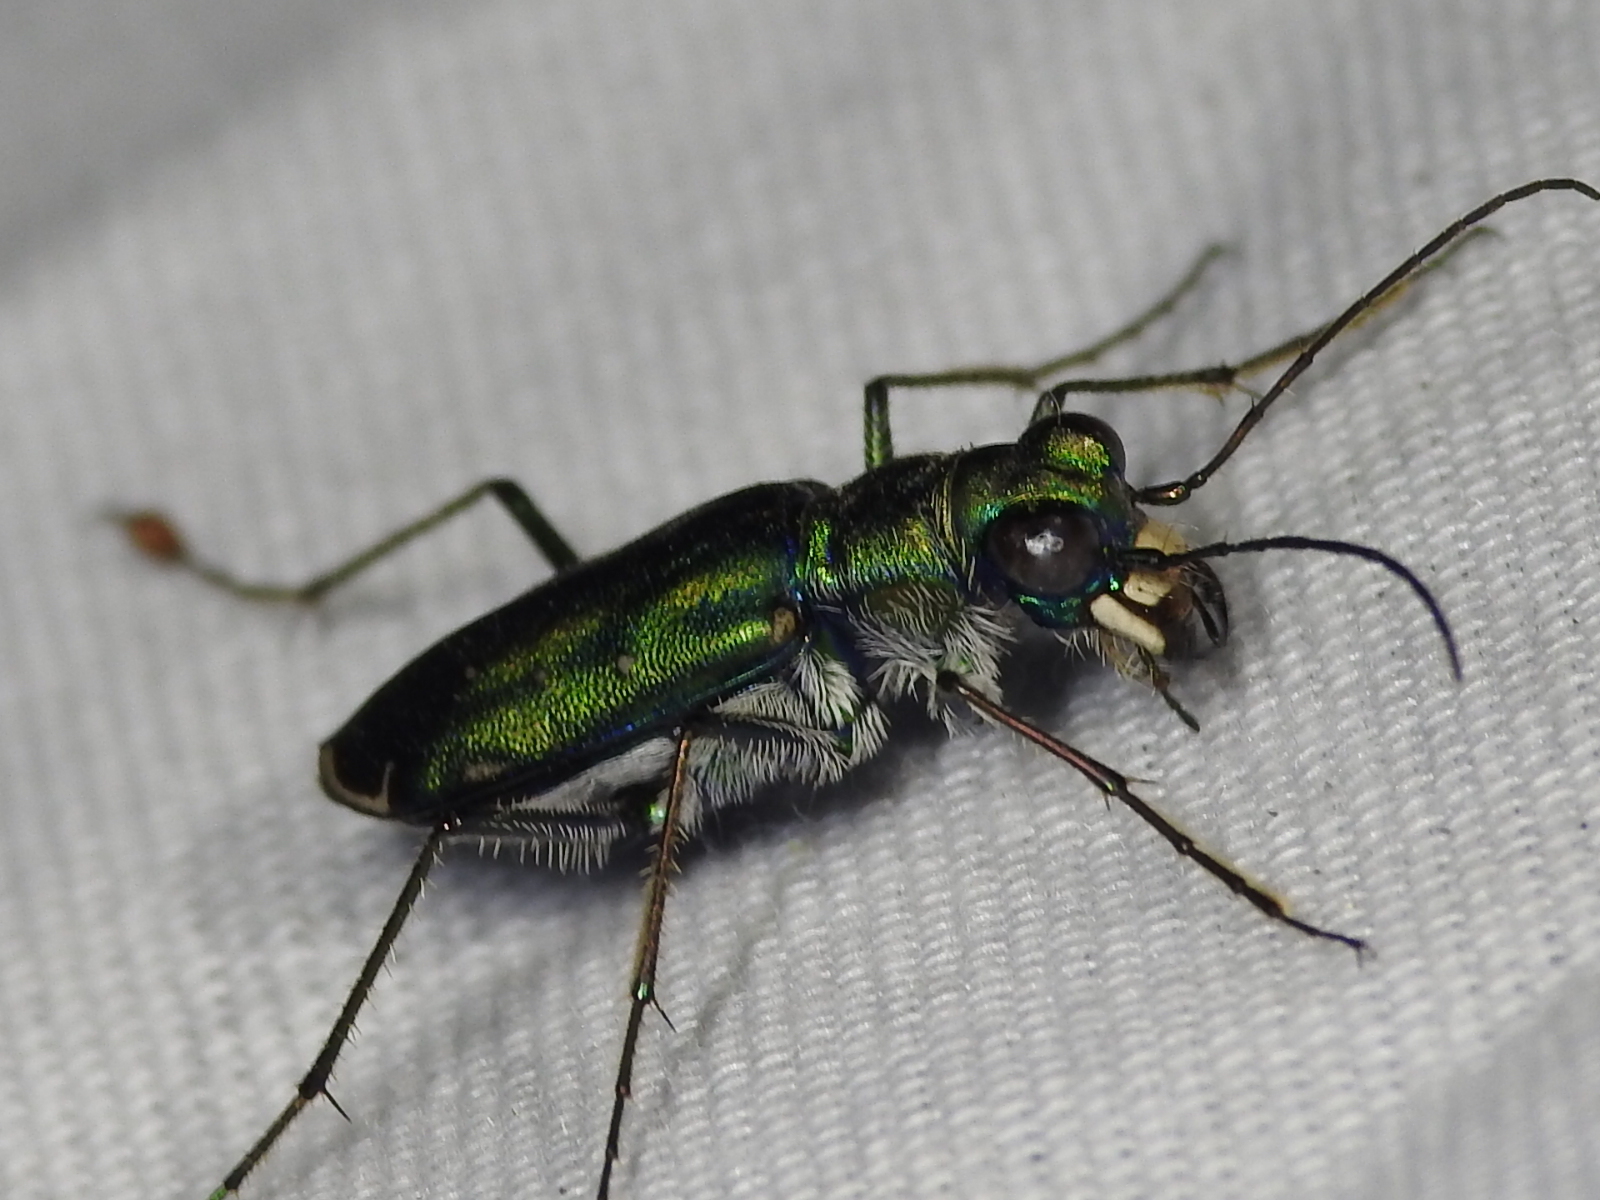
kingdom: Animalia
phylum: Arthropoda
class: Insecta
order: Coleoptera
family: Carabidae
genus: Cicindela
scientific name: Cicindela punctulata
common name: Punctured tiger beetle
